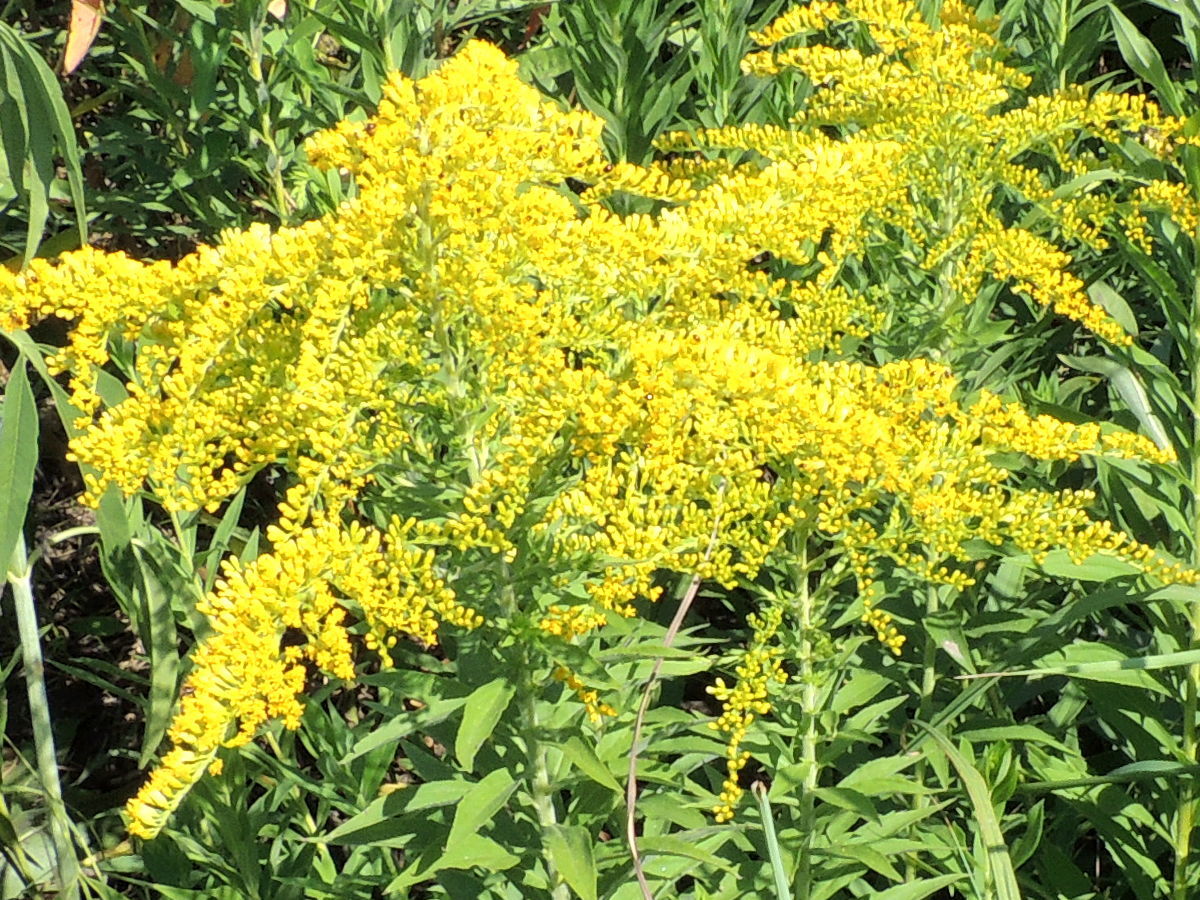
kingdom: Plantae
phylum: Tracheophyta
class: Magnoliopsida
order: Asterales
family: Asteraceae
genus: Solidago
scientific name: Solidago altissima
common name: Late goldenrod
